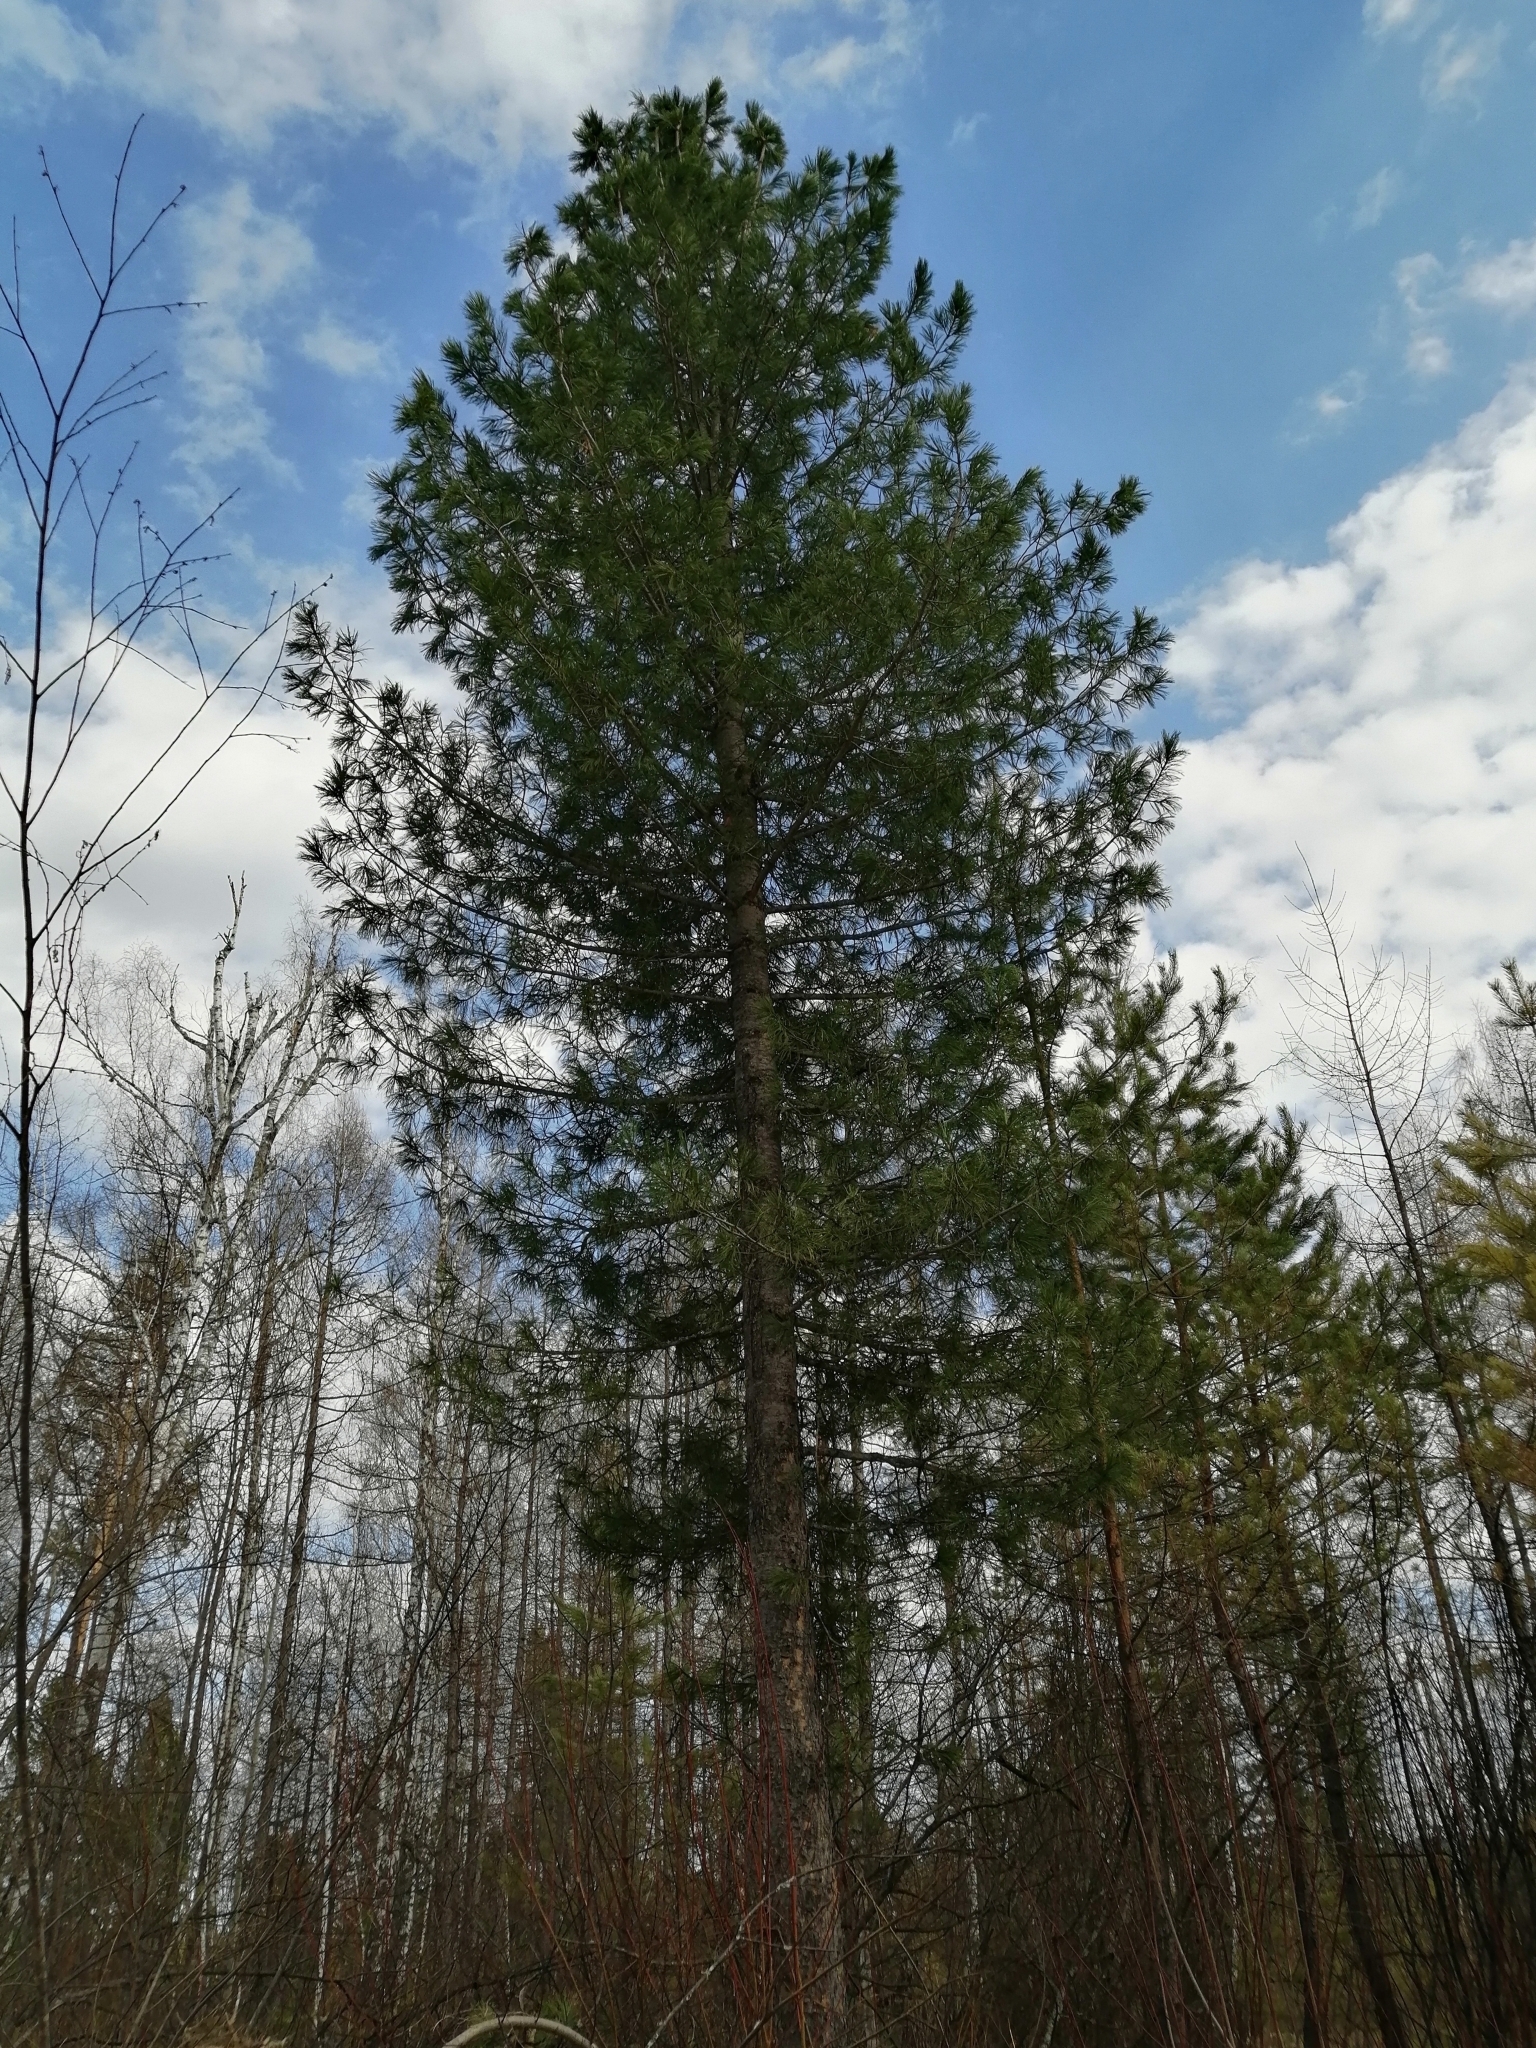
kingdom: Plantae
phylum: Tracheophyta
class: Pinopsida
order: Pinales
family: Pinaceae
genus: Pinus
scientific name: Pinus sibirica
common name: Siberian pine
